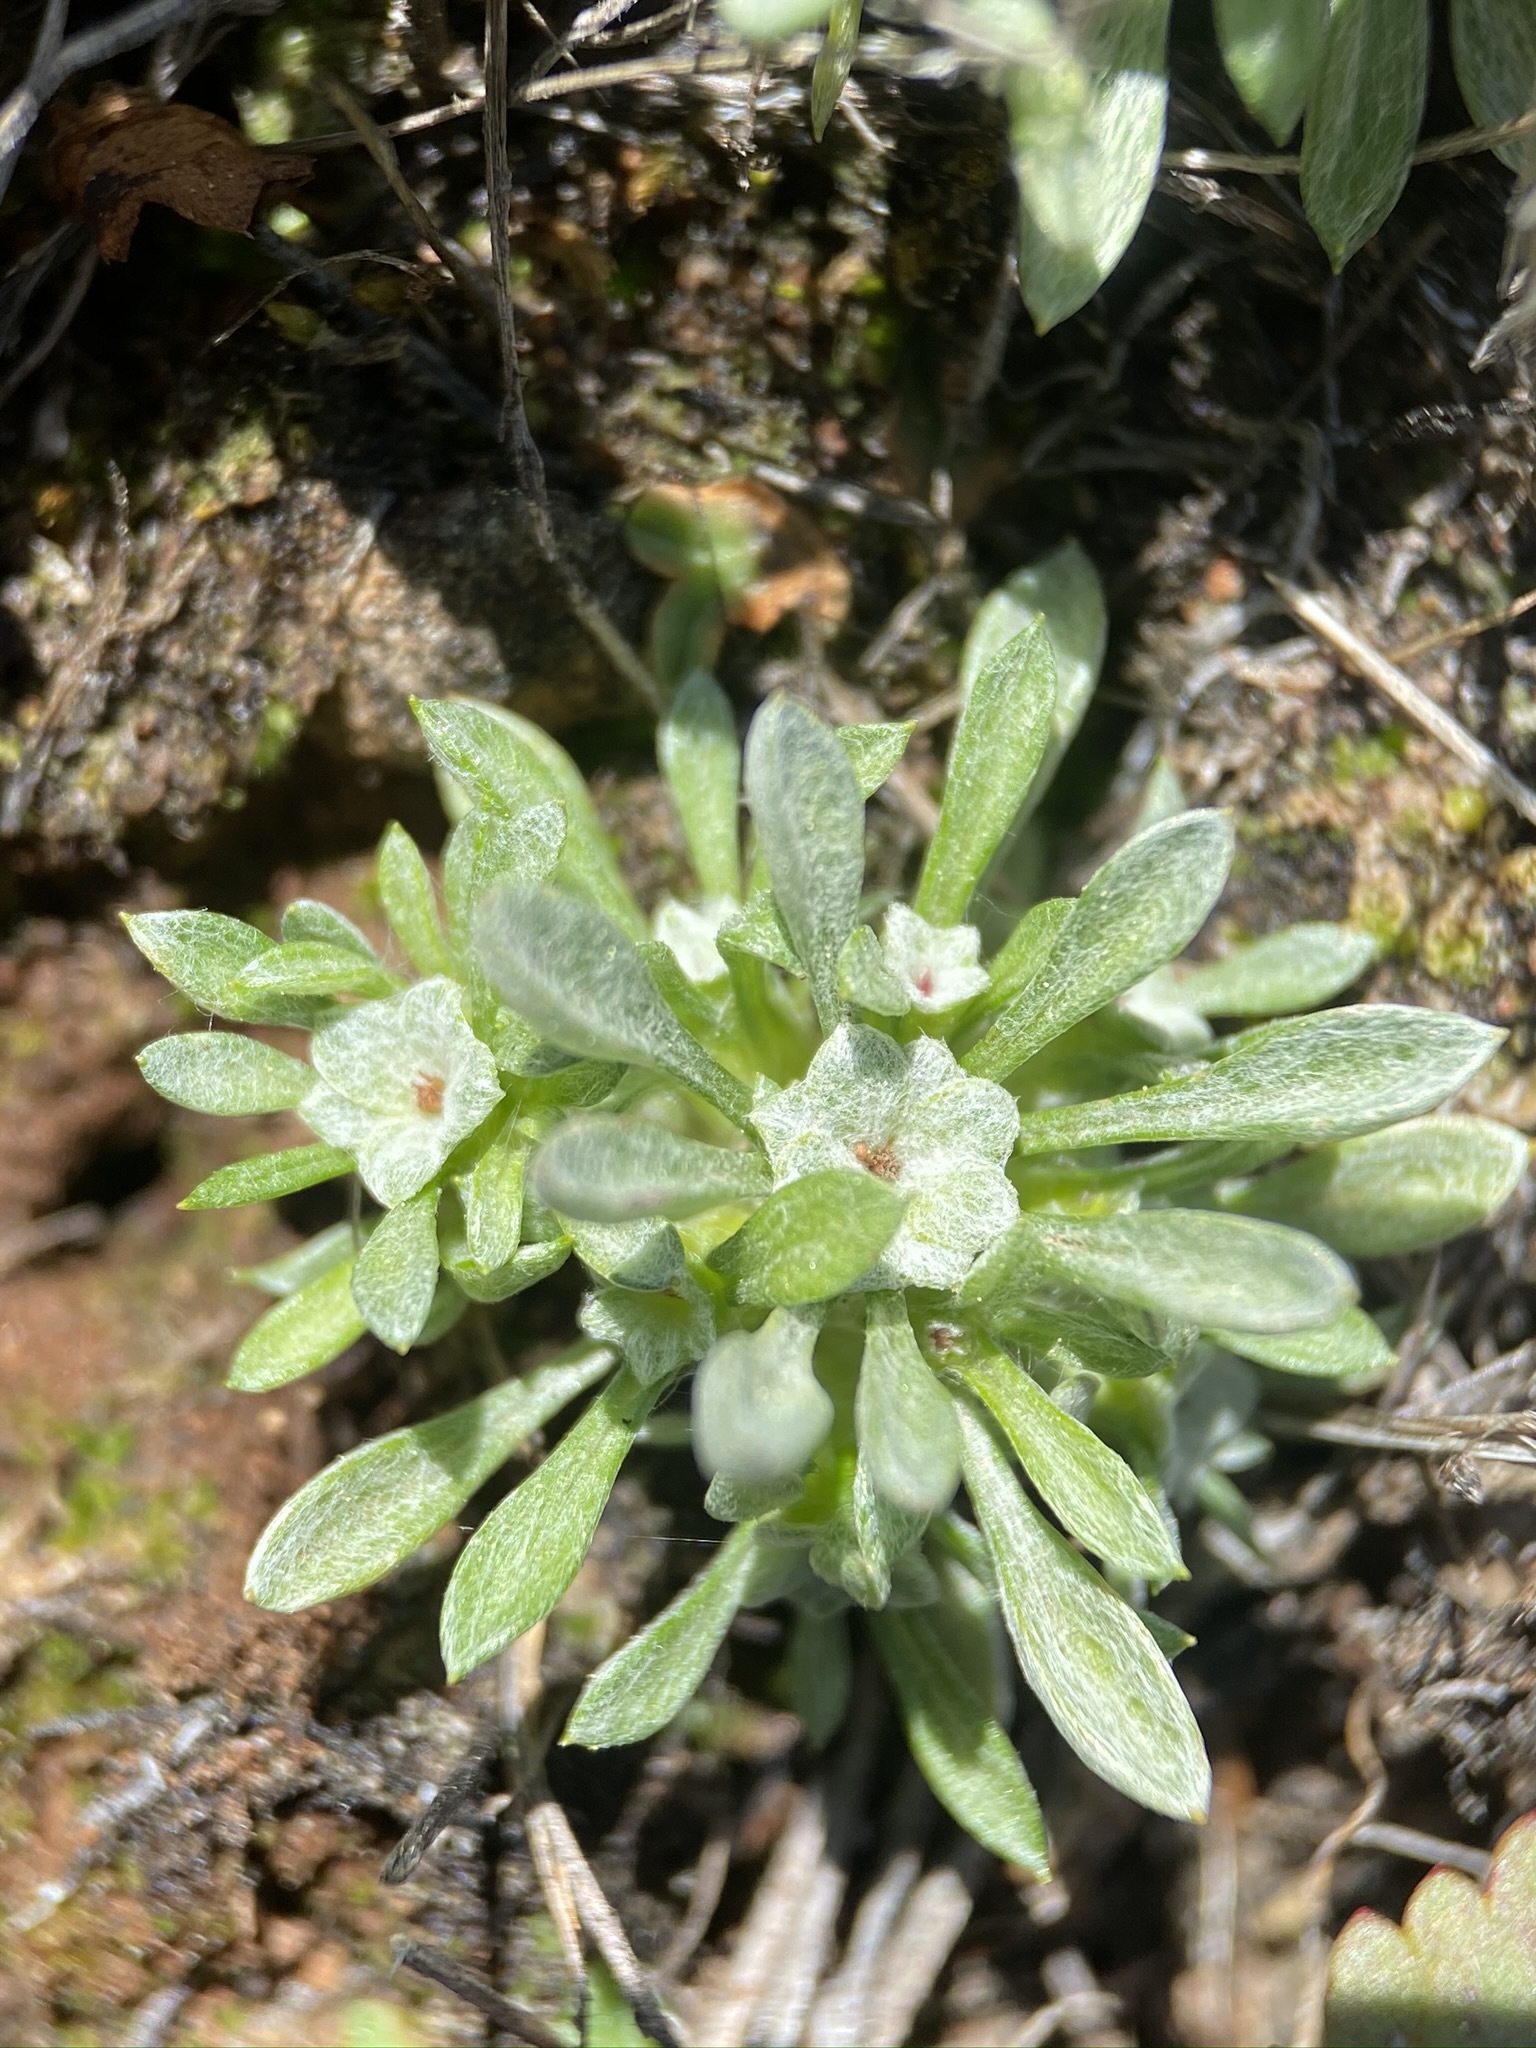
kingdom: Plantae
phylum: Tracheophyta
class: Magnoliopsida
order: Asterales
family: Asteraceae
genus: Hesperevax
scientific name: Hesperevax acaulis
